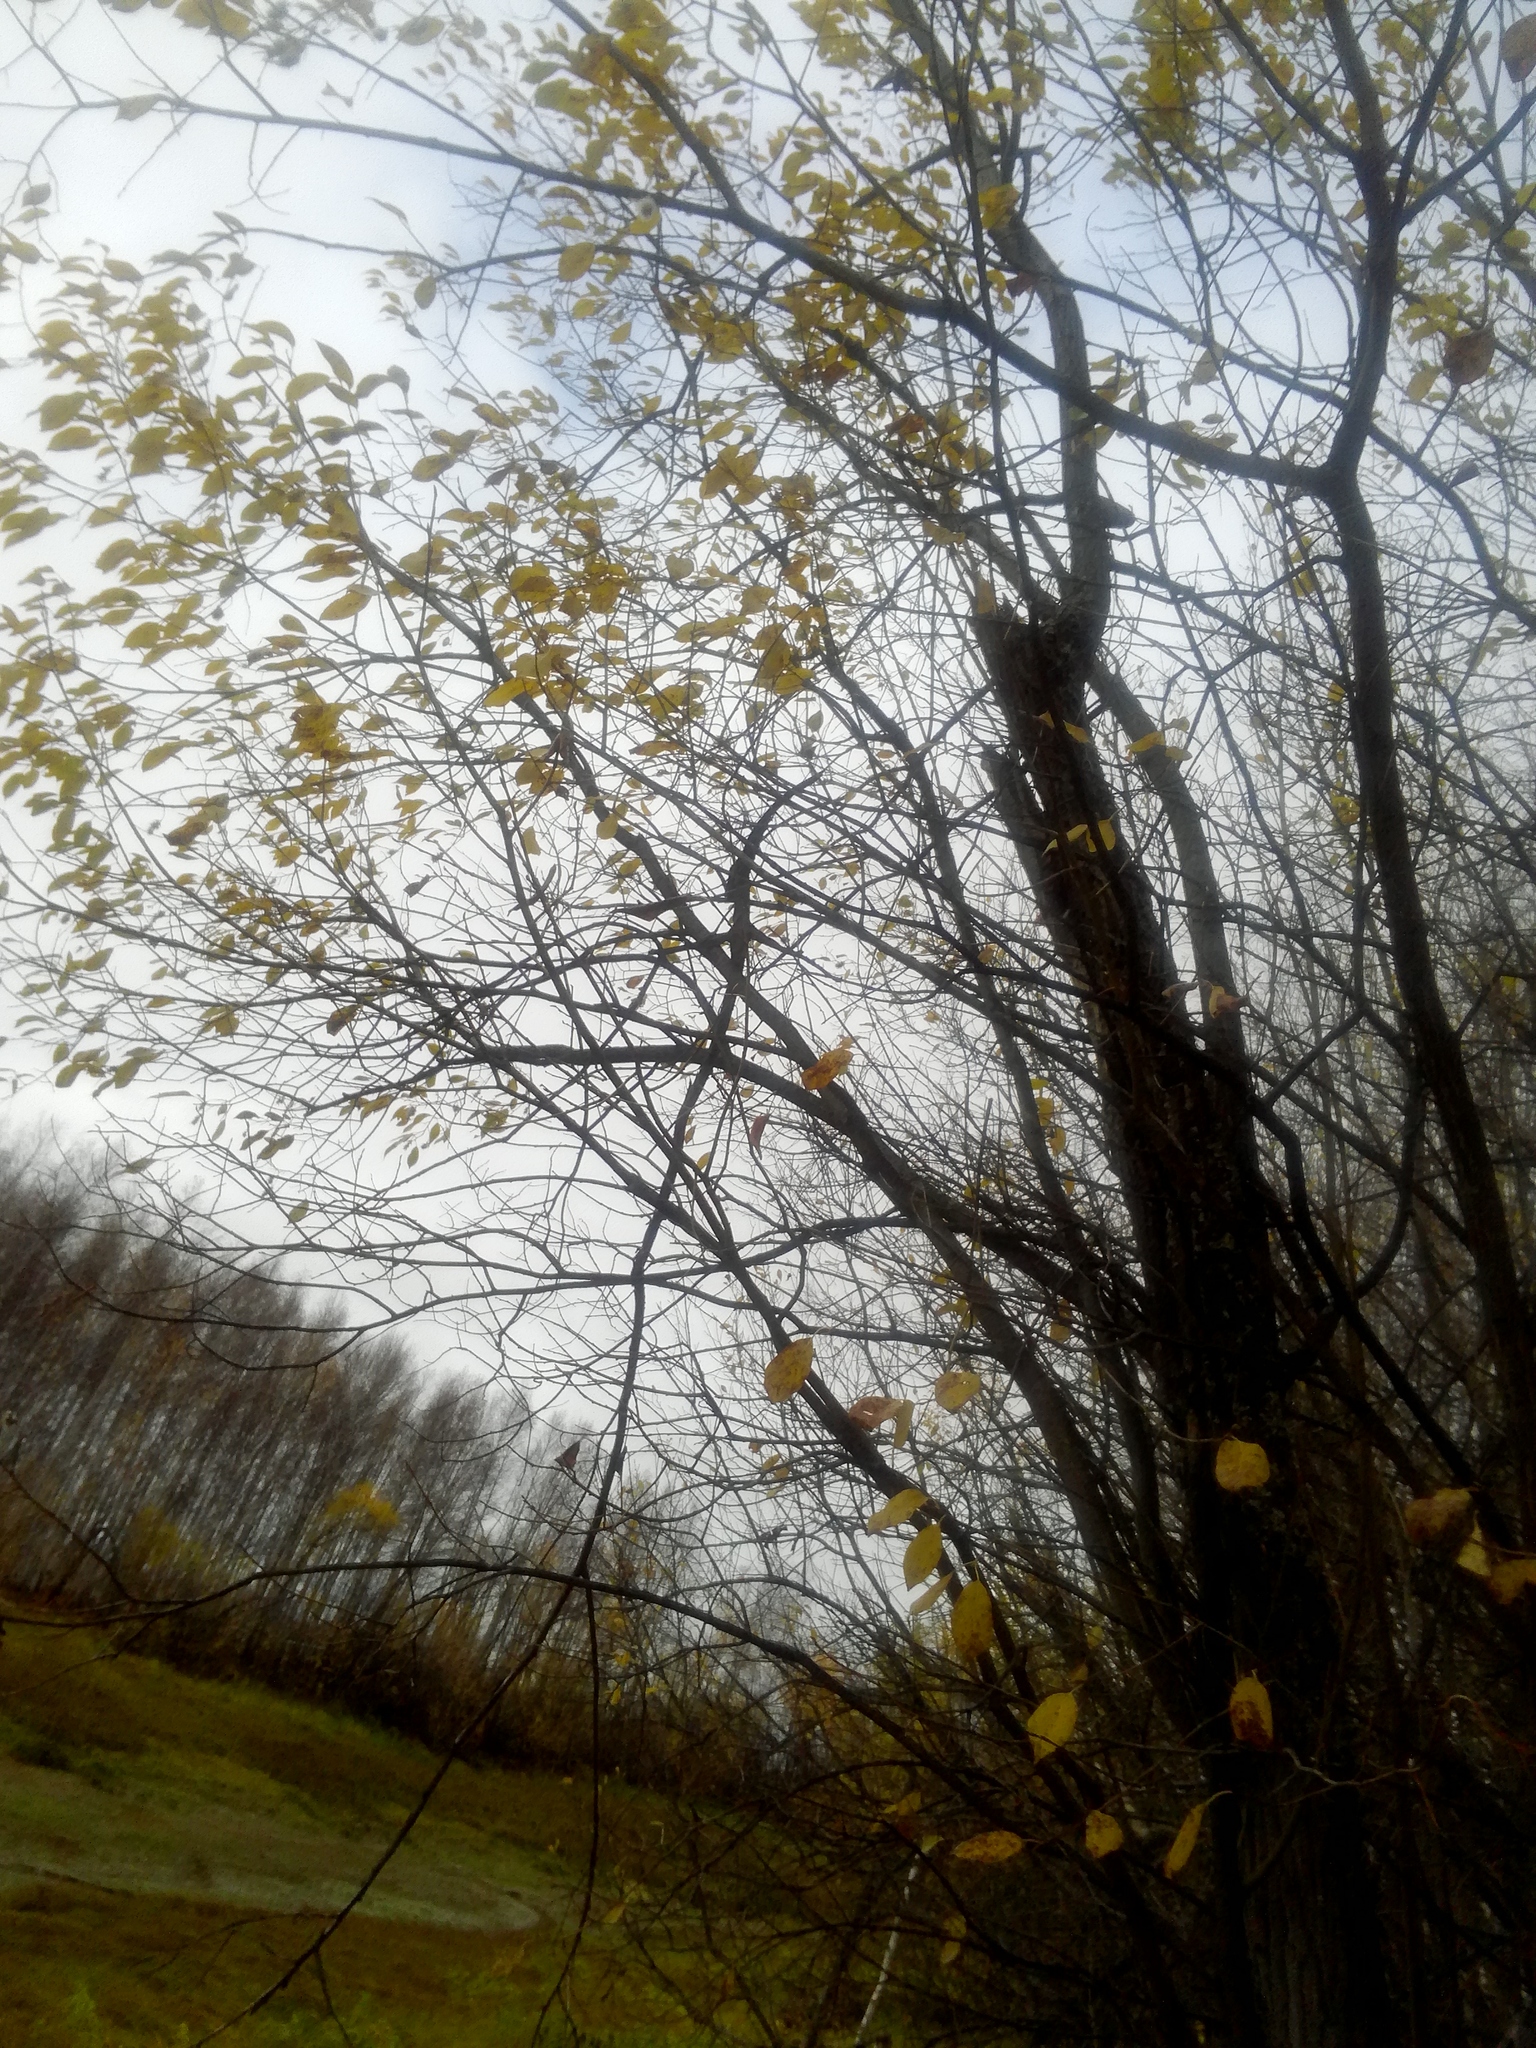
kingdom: Plantae
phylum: Tracheophyta
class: Magnoliopsida
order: Rosales
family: Rosaceae
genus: Prunus
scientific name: Prunus padus
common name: Bird cherry
